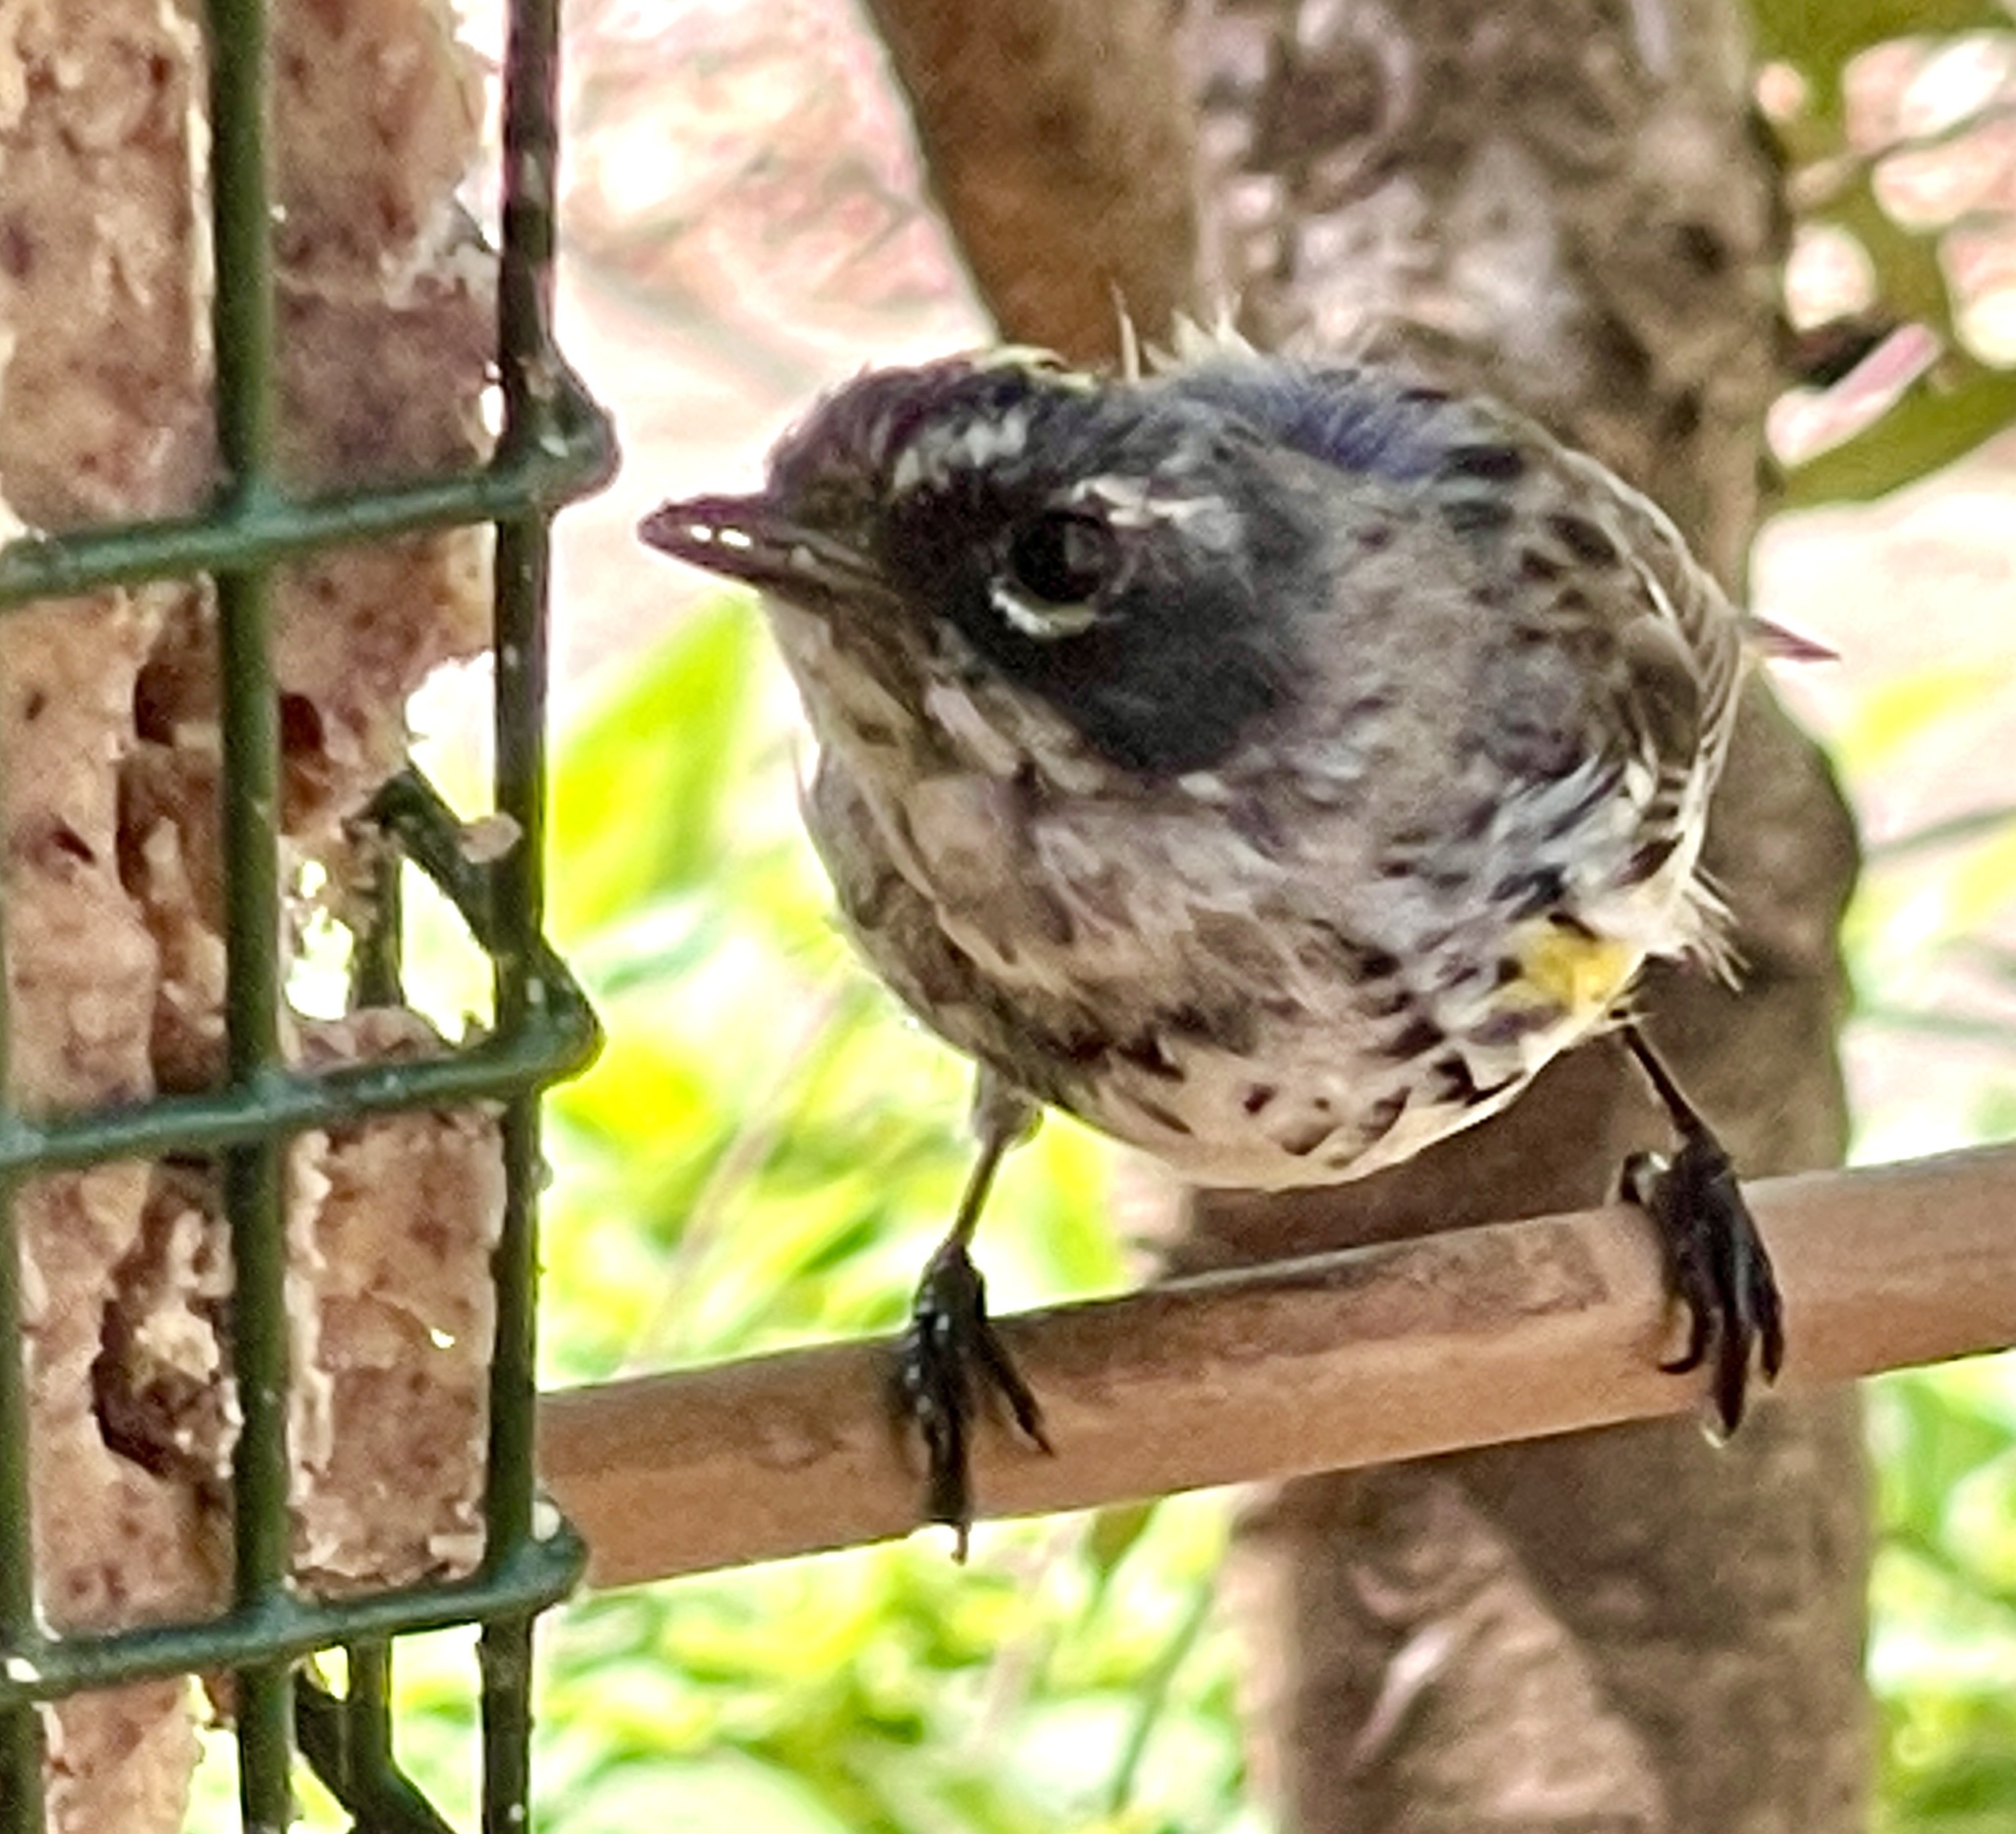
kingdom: Animalia
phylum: Chordata
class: Aves
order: Passeriformes
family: Parulidae
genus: Setophaga
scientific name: Setophaga coronata
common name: Myrtle warbler
